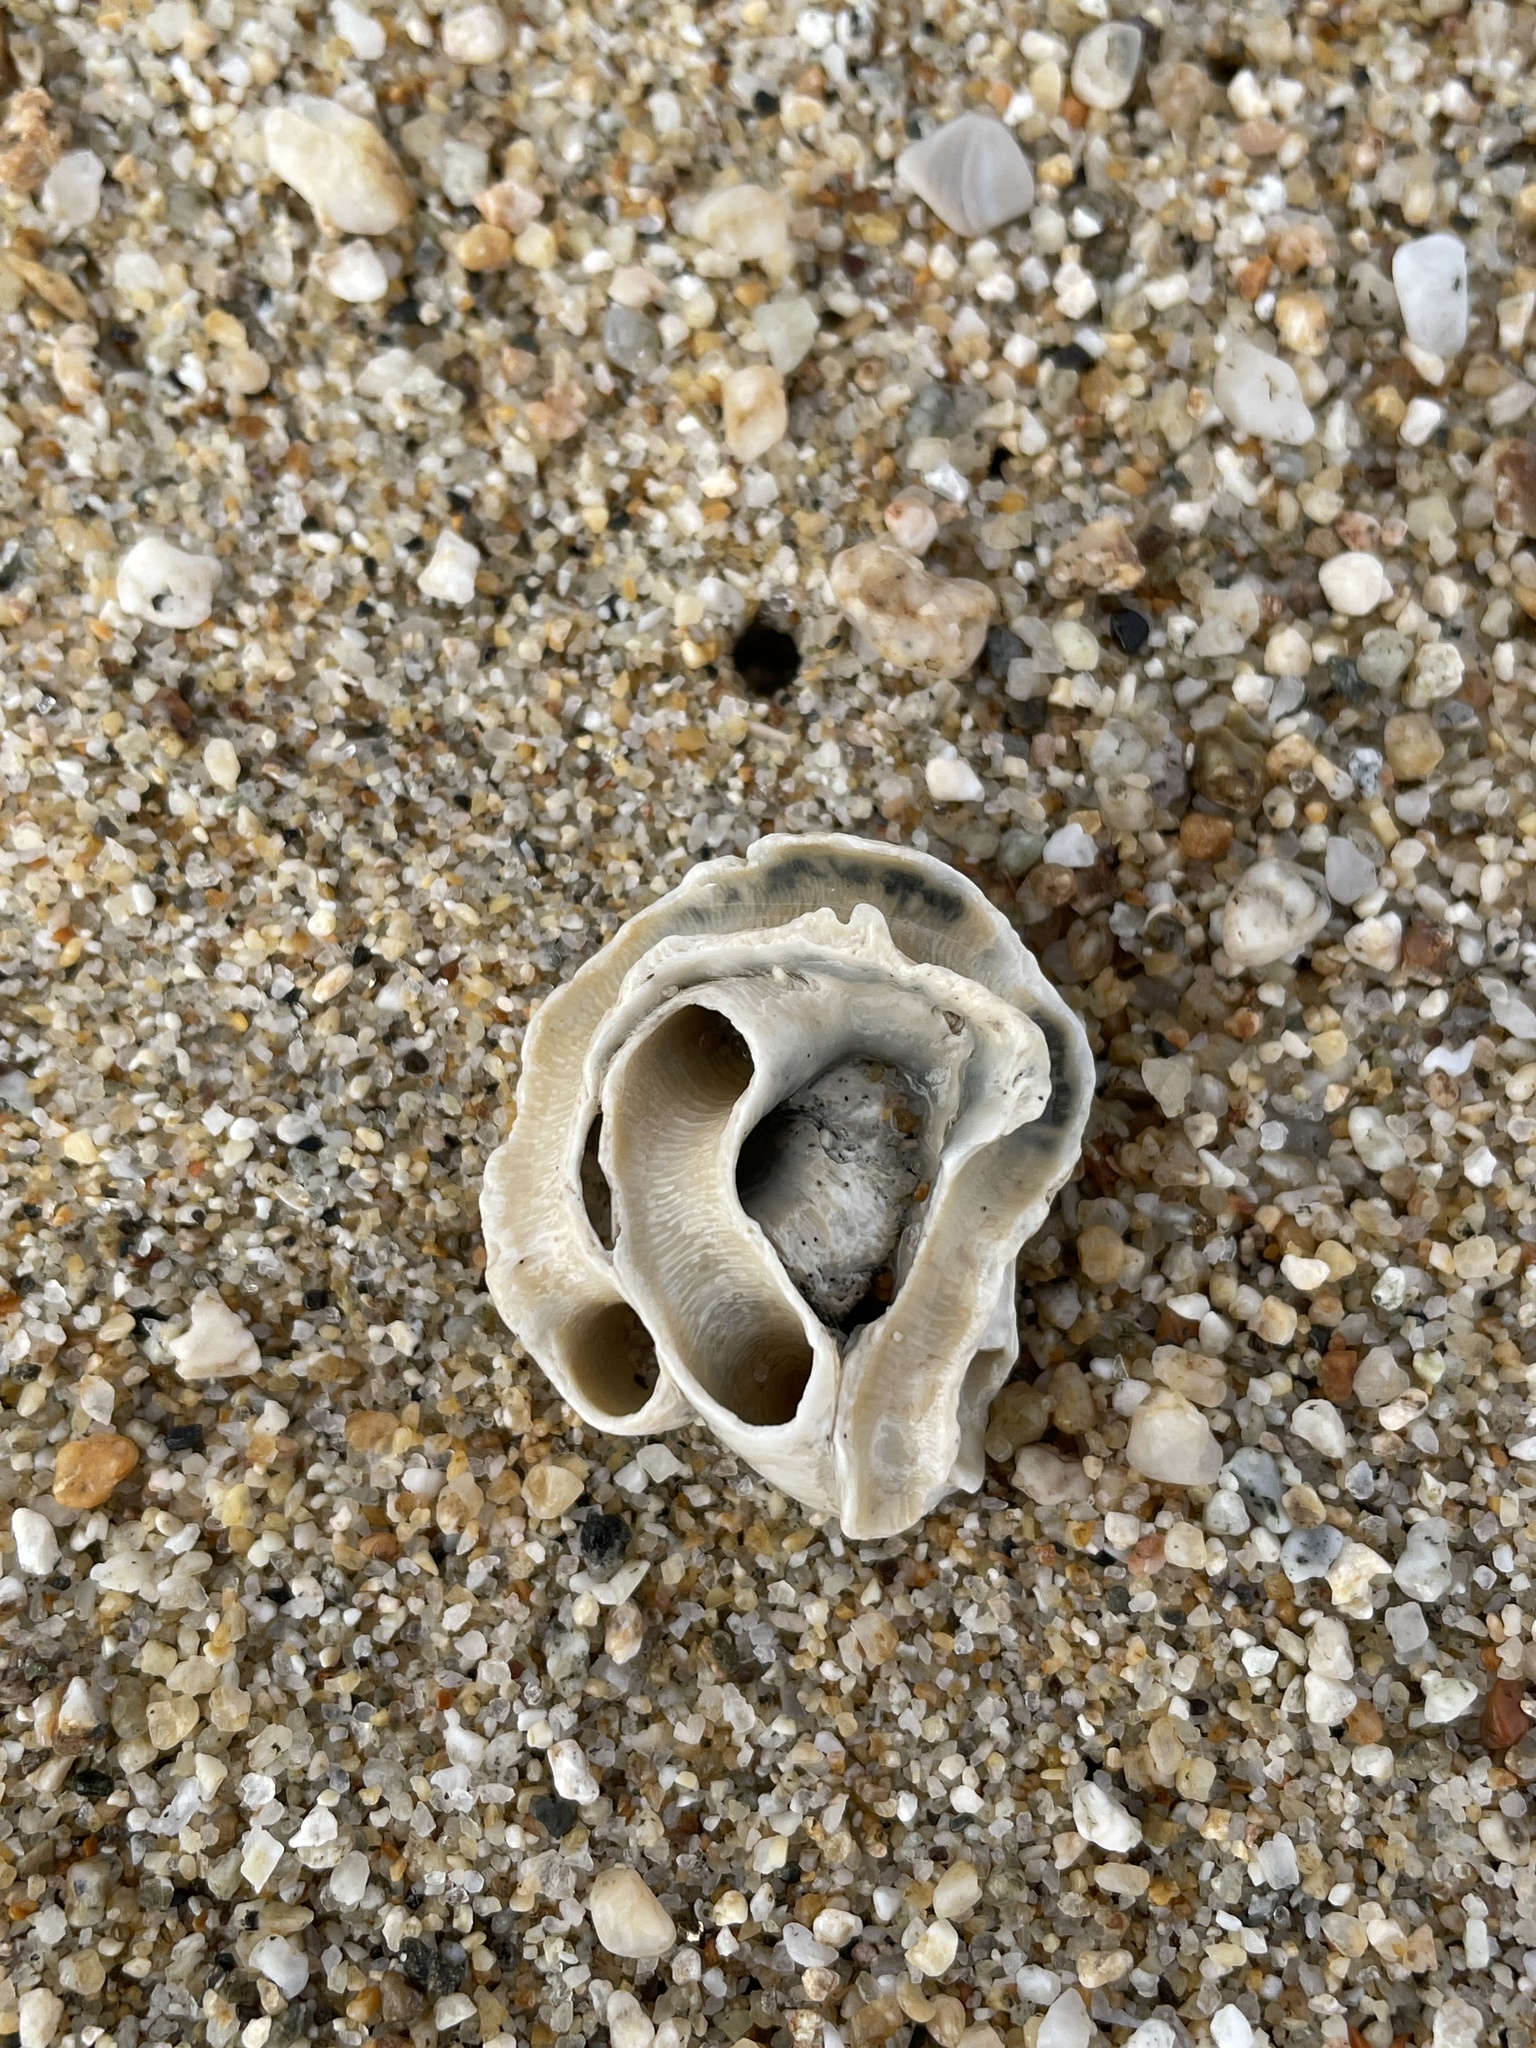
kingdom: Animalia
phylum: Mollusca
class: Gastropoda
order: Littorinimorpha
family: Vermetidae
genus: Thylacodes
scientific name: Thylacodes squamigerus
